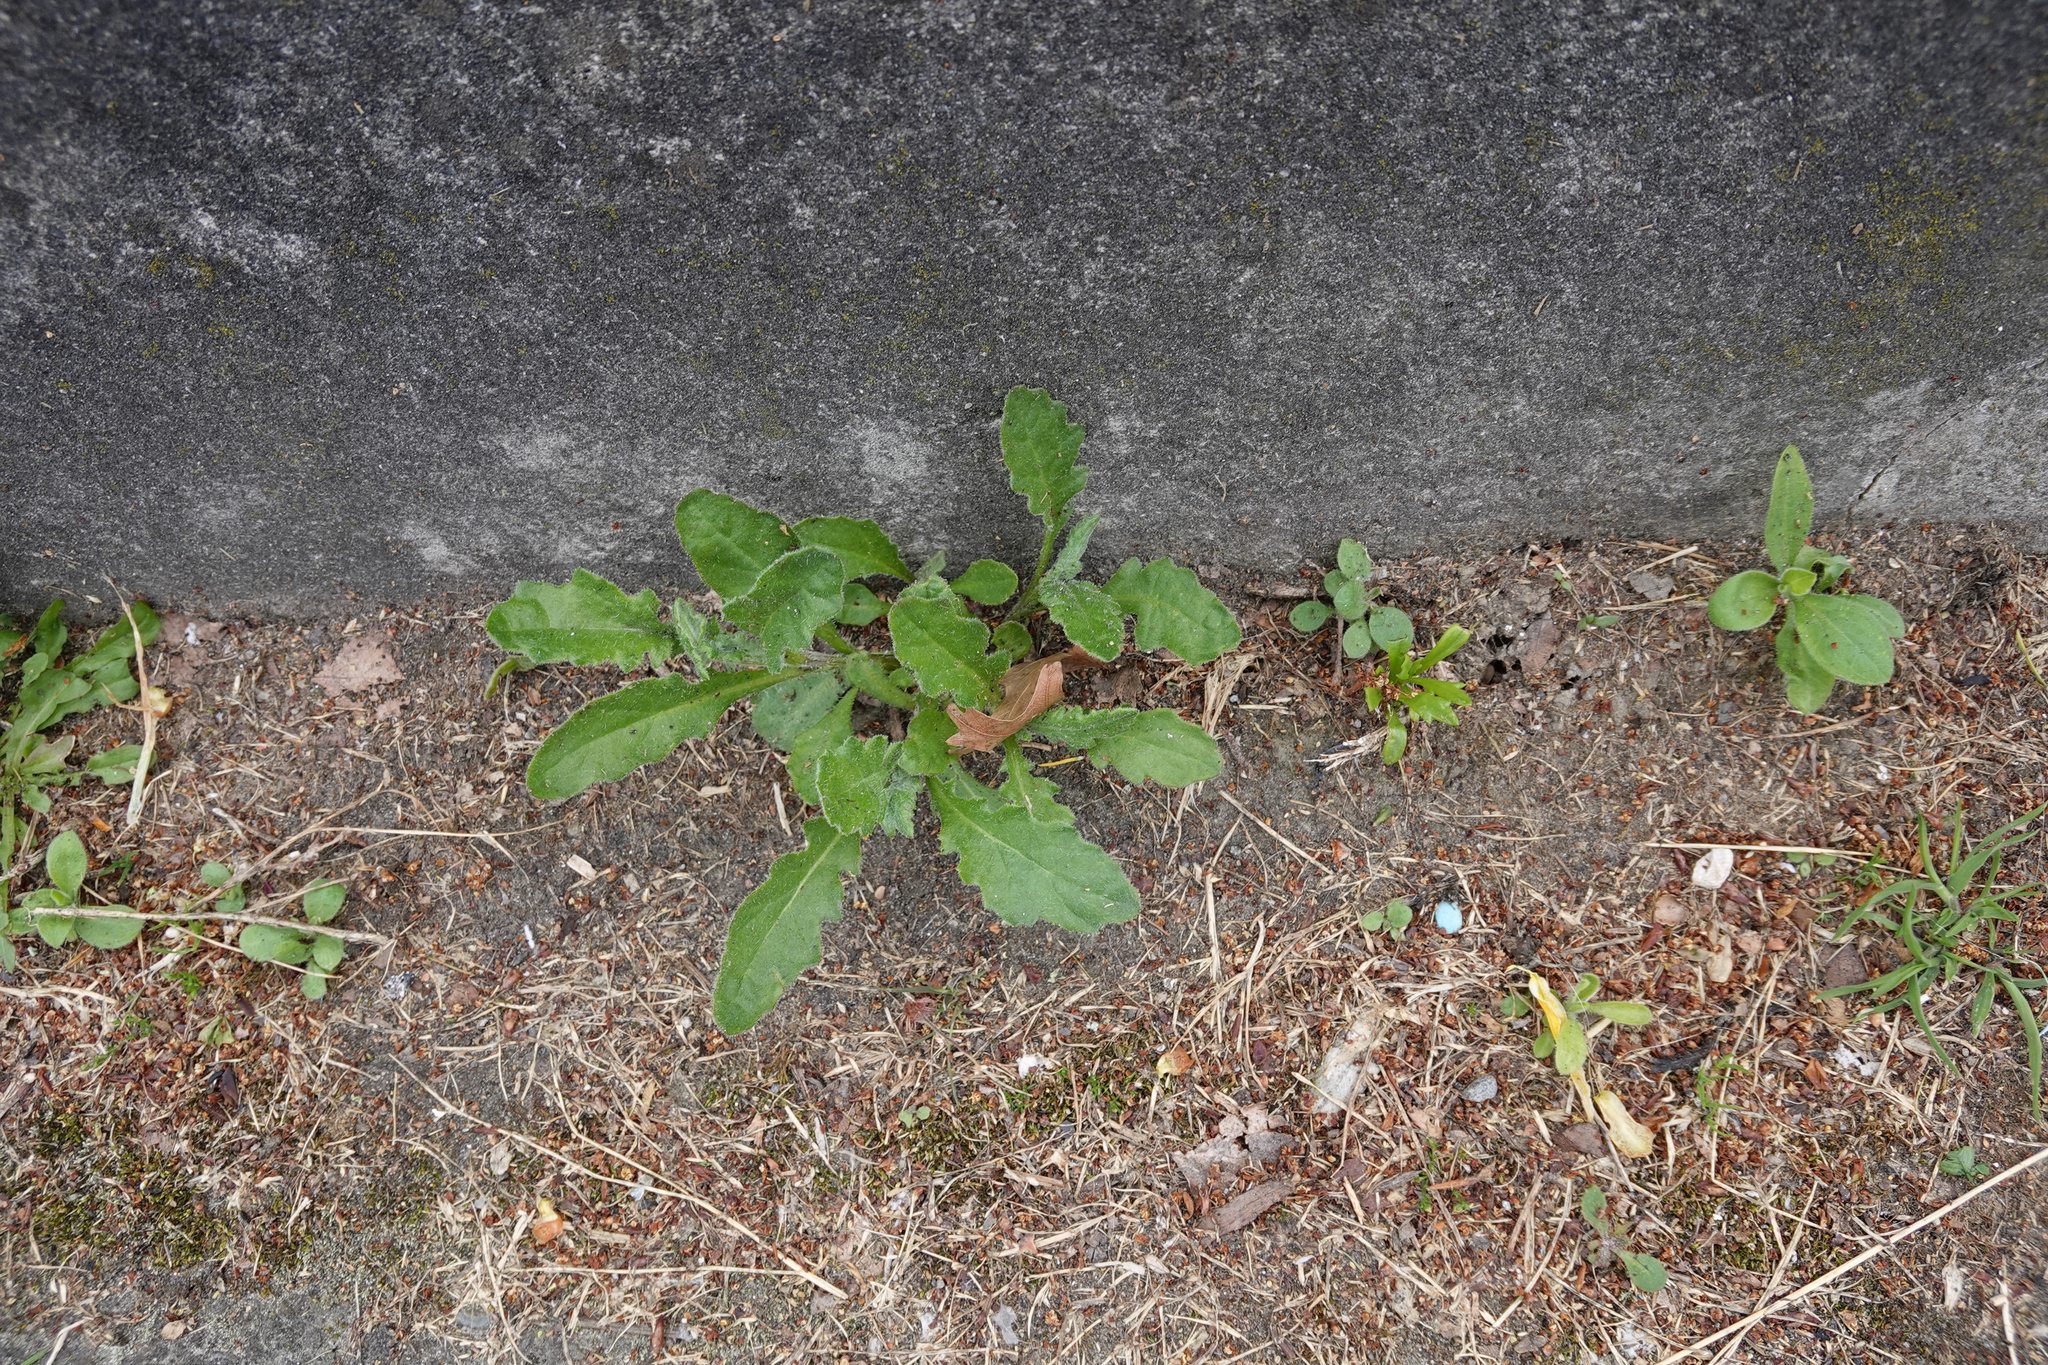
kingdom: Plantae
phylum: Tracheophyta
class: Magnoliopsida
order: Asterales
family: Asteraceae
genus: Senecio
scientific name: Senecio glomeratus
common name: Cutleaf burnweed
